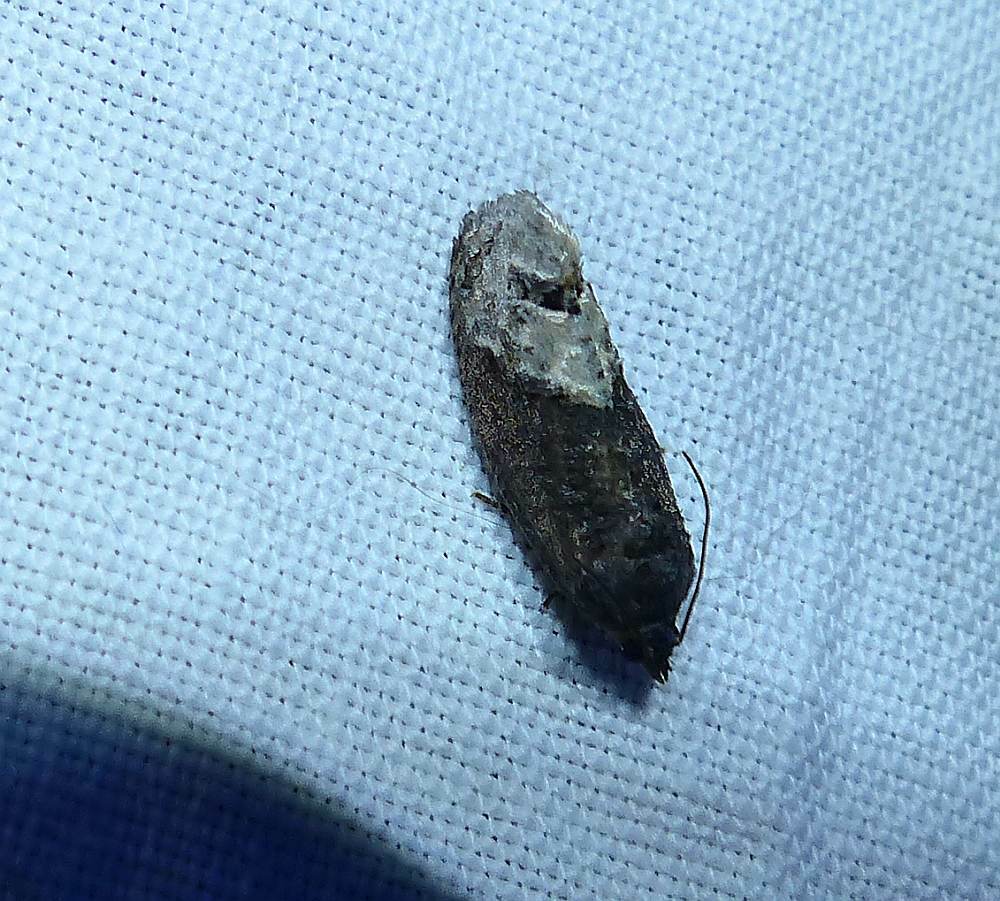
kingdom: Animalia
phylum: Arthropoda
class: Insecta
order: Lepidoptera
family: Tortricidae
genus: Ecdytolopha
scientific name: Ecdytolopha insiticiana
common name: Locust twig borer moth
